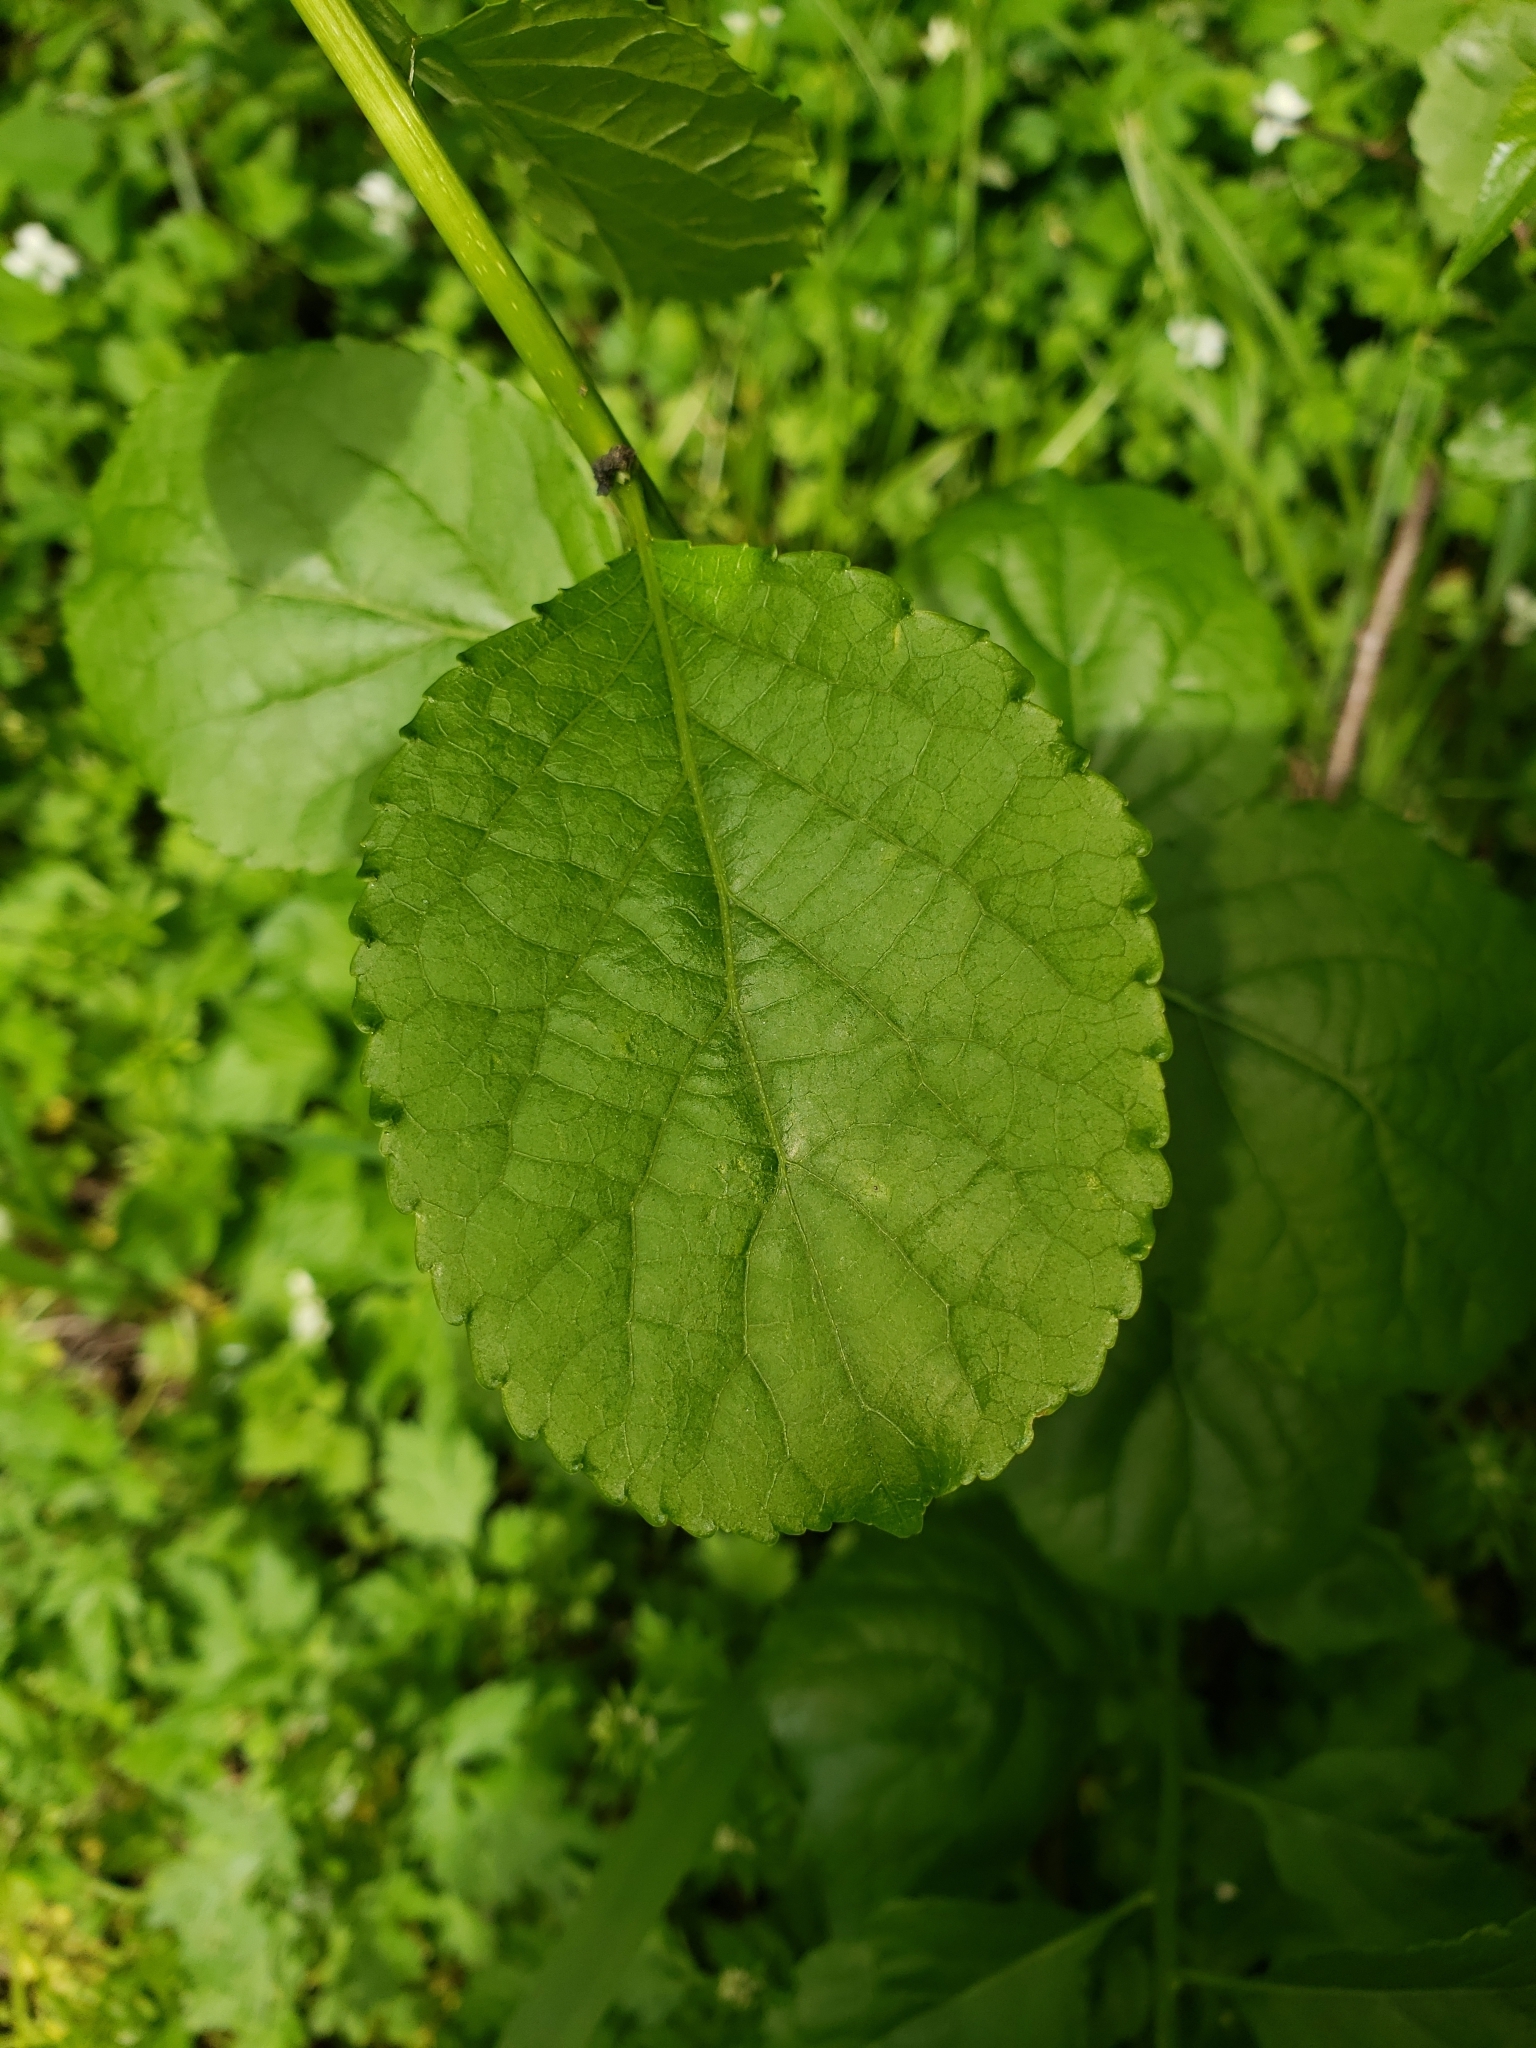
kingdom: Plantae
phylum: Tracheophyta
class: Magnoliopsida
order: Celastrales
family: Celastraceae
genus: Celastrus
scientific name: Celastrus orbiculatus
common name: Oriental bittersweet
